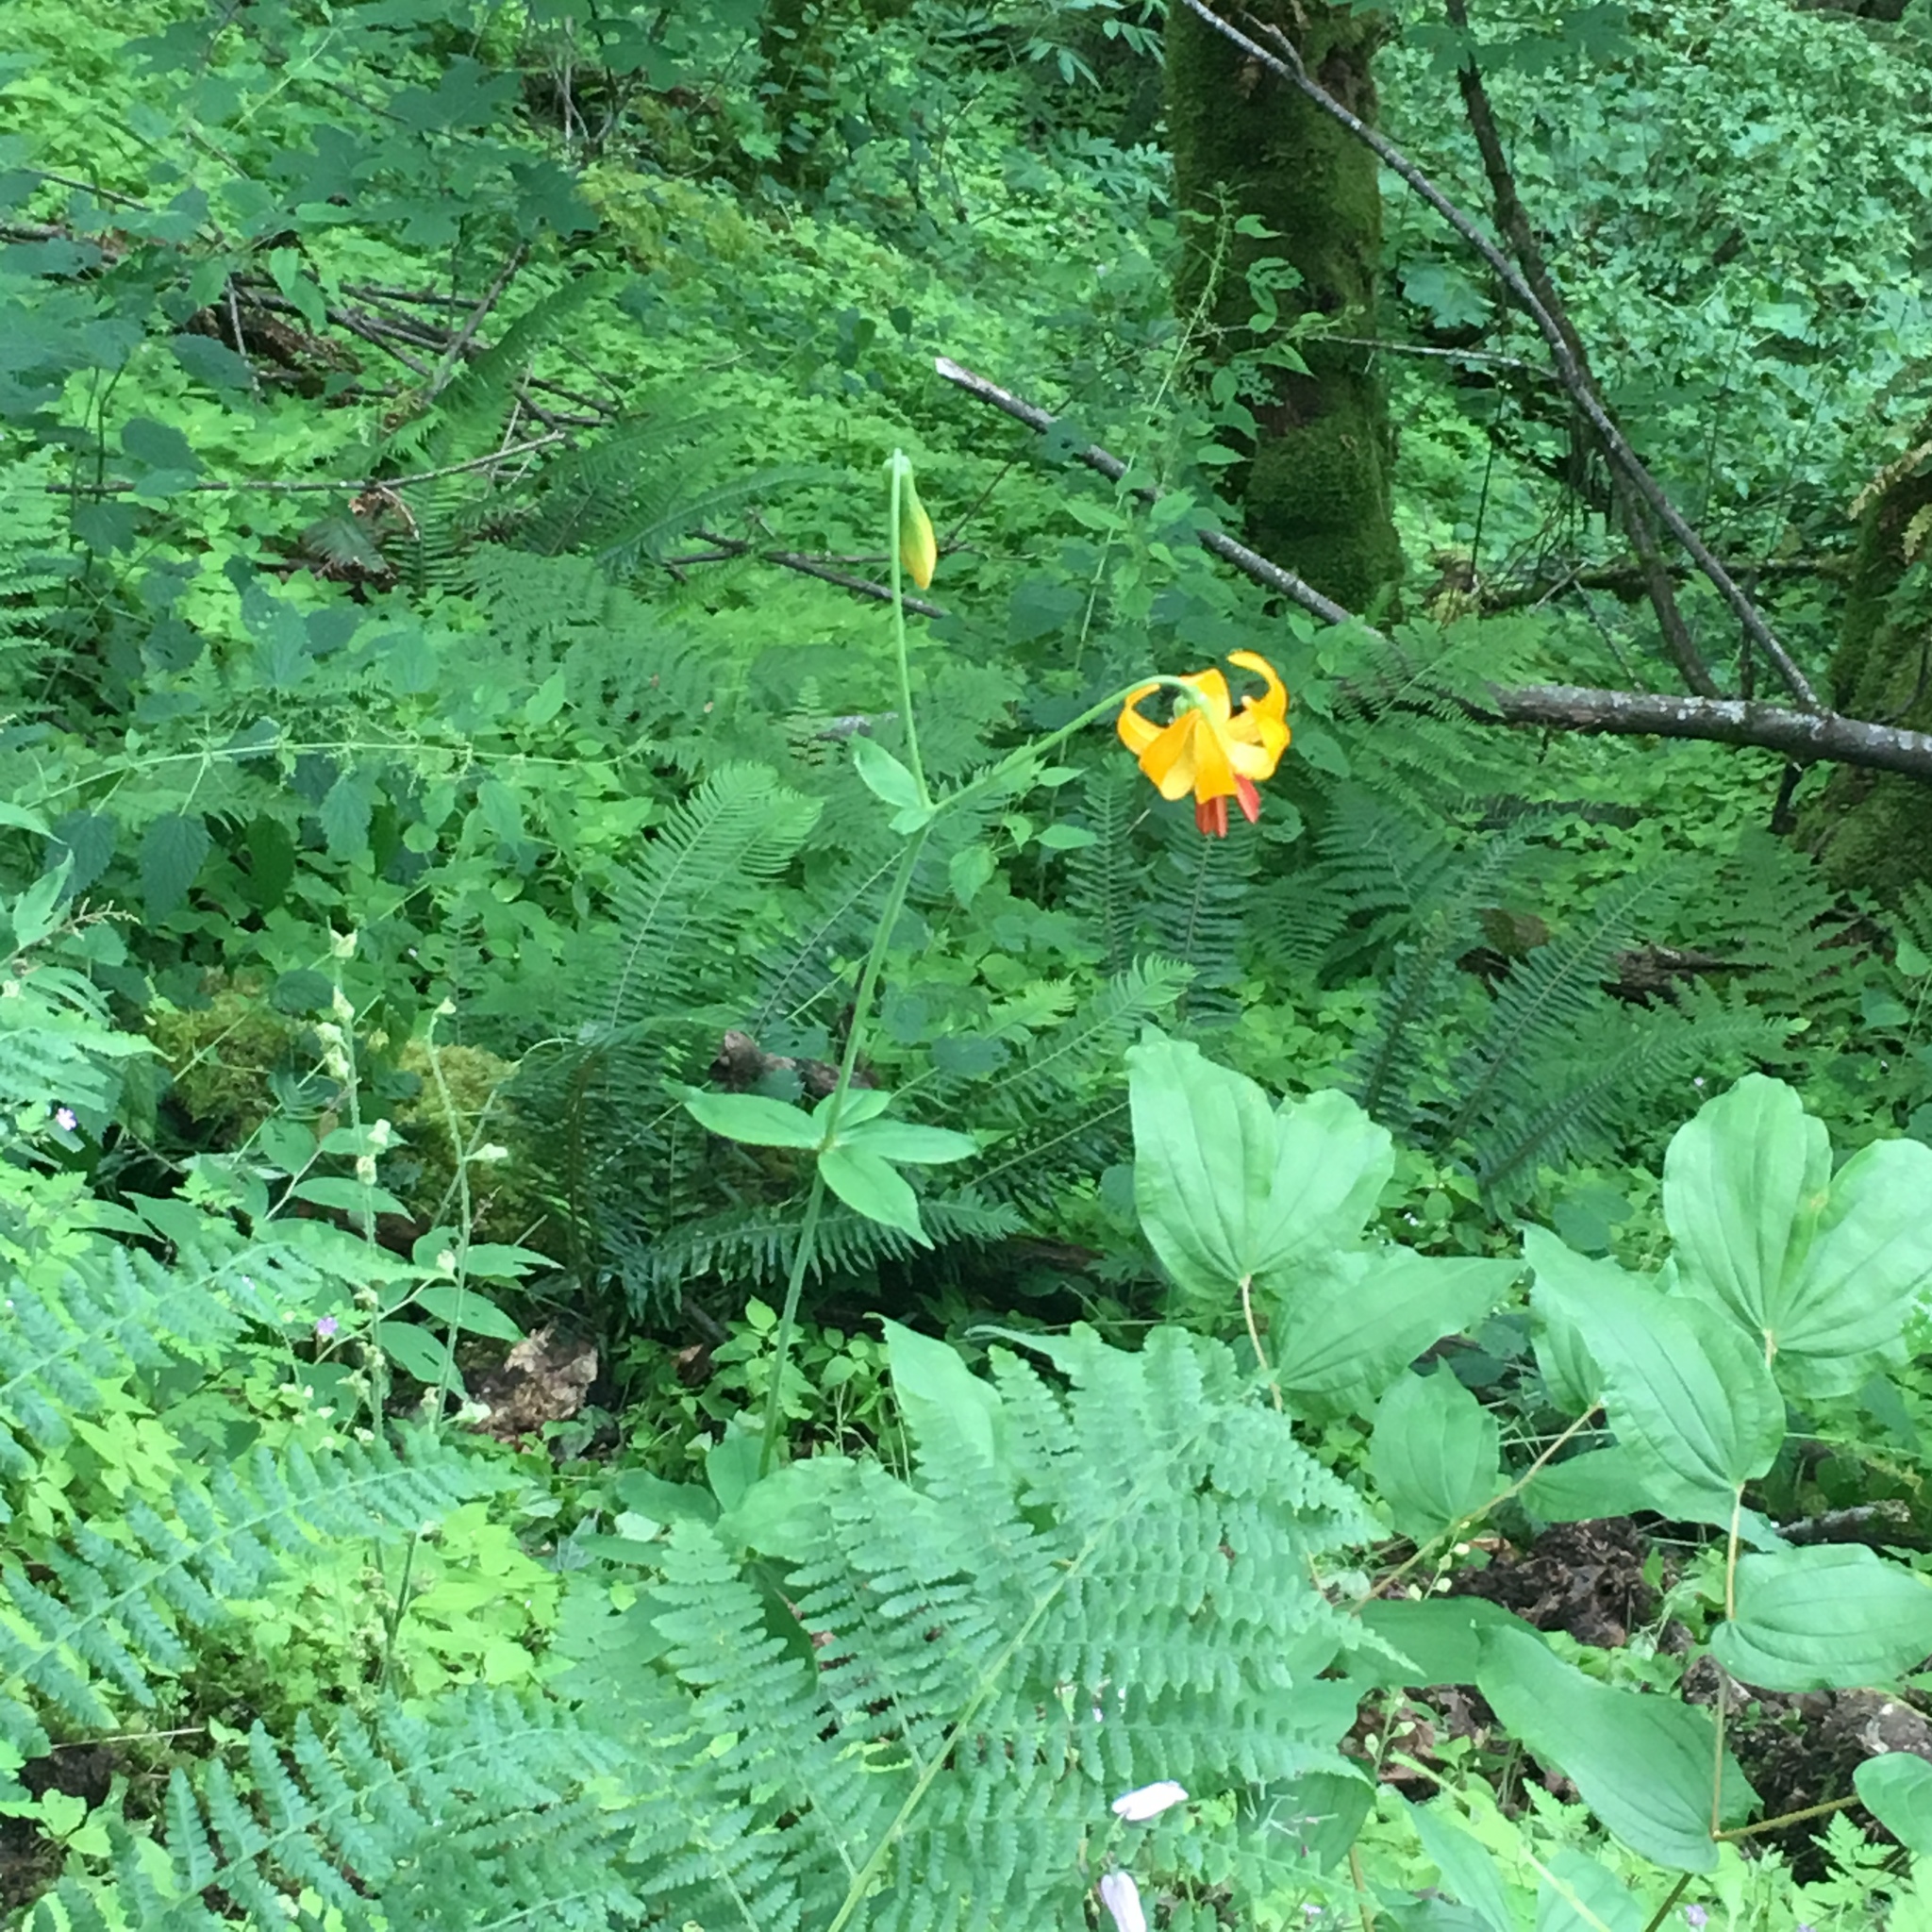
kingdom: Plantae
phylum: Tracheophyta
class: Liliopsida
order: Liliales
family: Liliaceae
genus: Lilium
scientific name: Lilium columbianum
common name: Columbia lily
